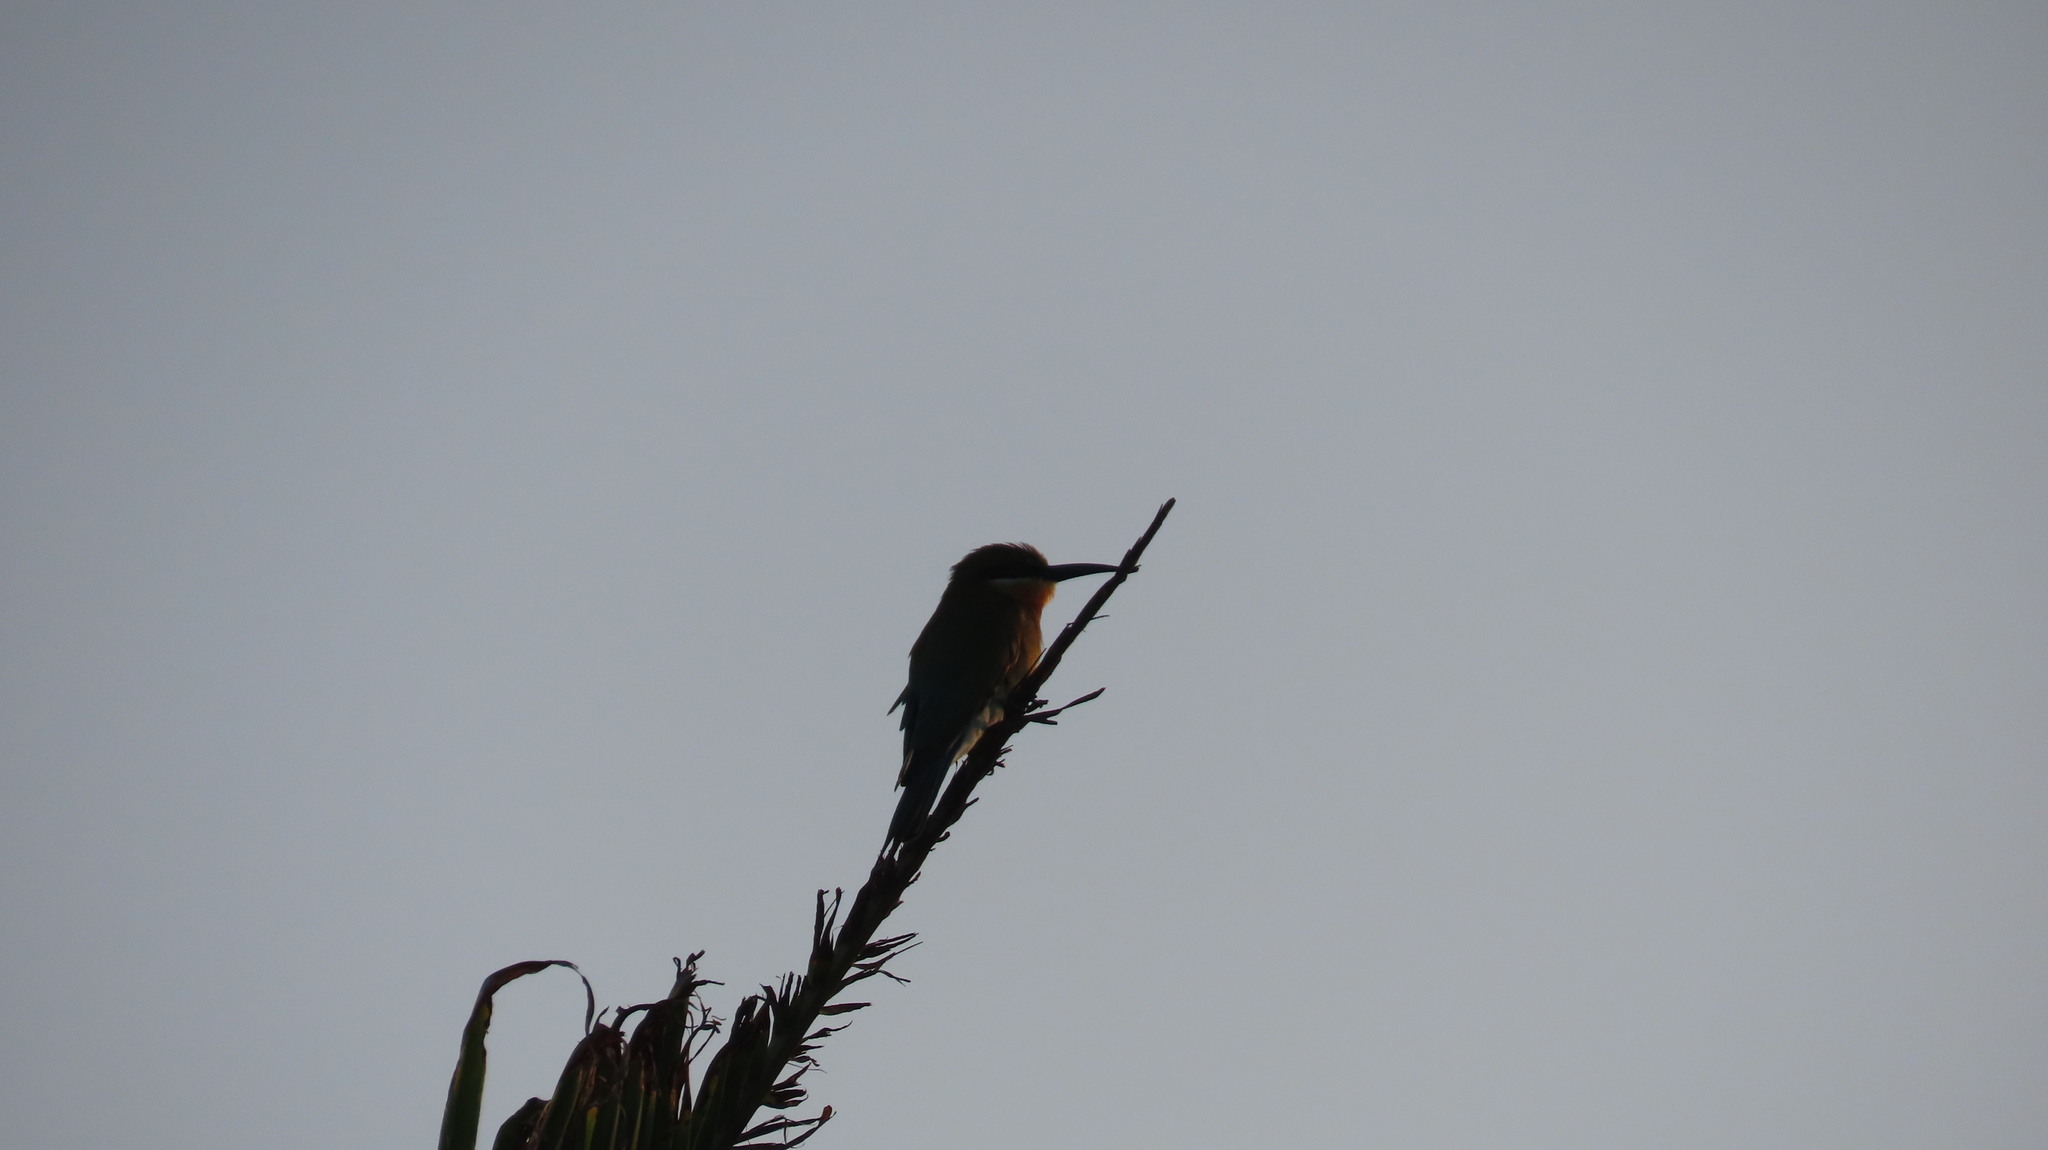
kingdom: Animalia
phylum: Chordata
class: Aves
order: Coraciiformes
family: Meropidae
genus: Merops
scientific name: Merops philippinus
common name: Blue-tailed bee-eater
